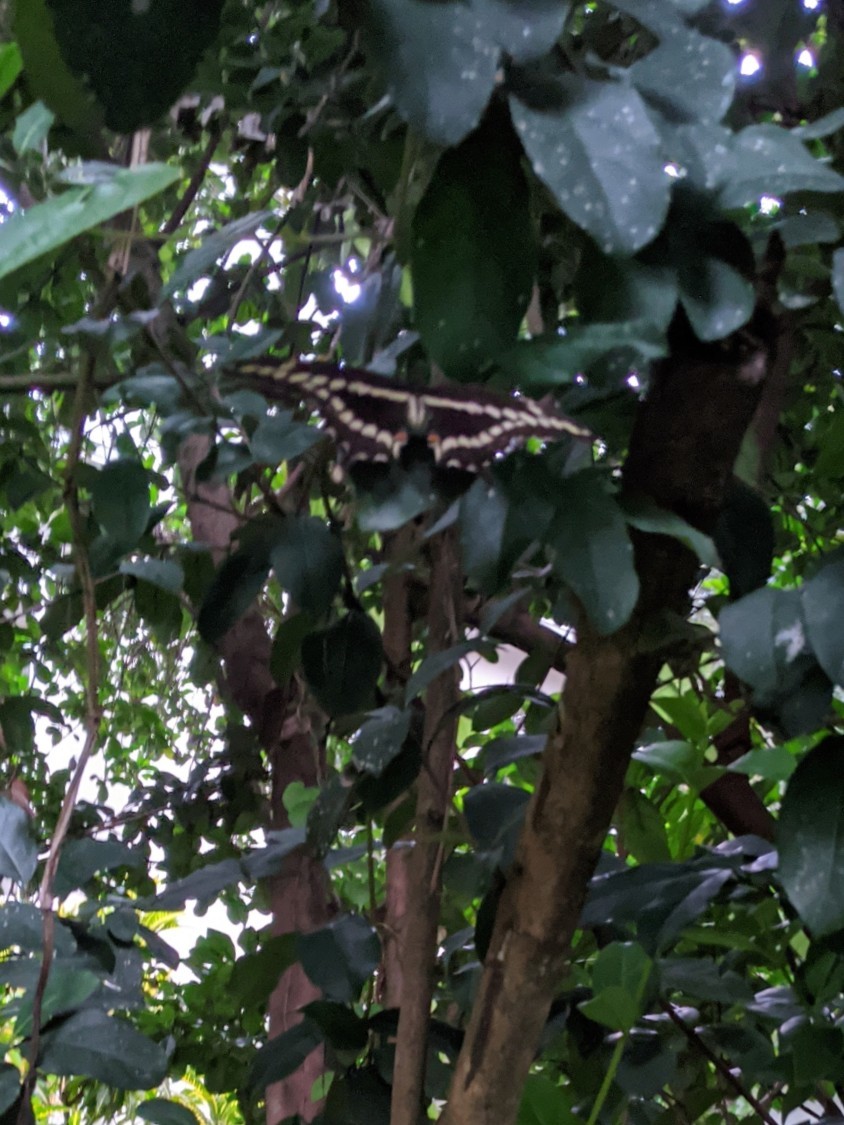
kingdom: Animalia
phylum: Arthropoda
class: Insecta
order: Lepidoptera
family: Papilionidae
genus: Papilio
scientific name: Papilio cresphontes
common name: Giant swallowtail
